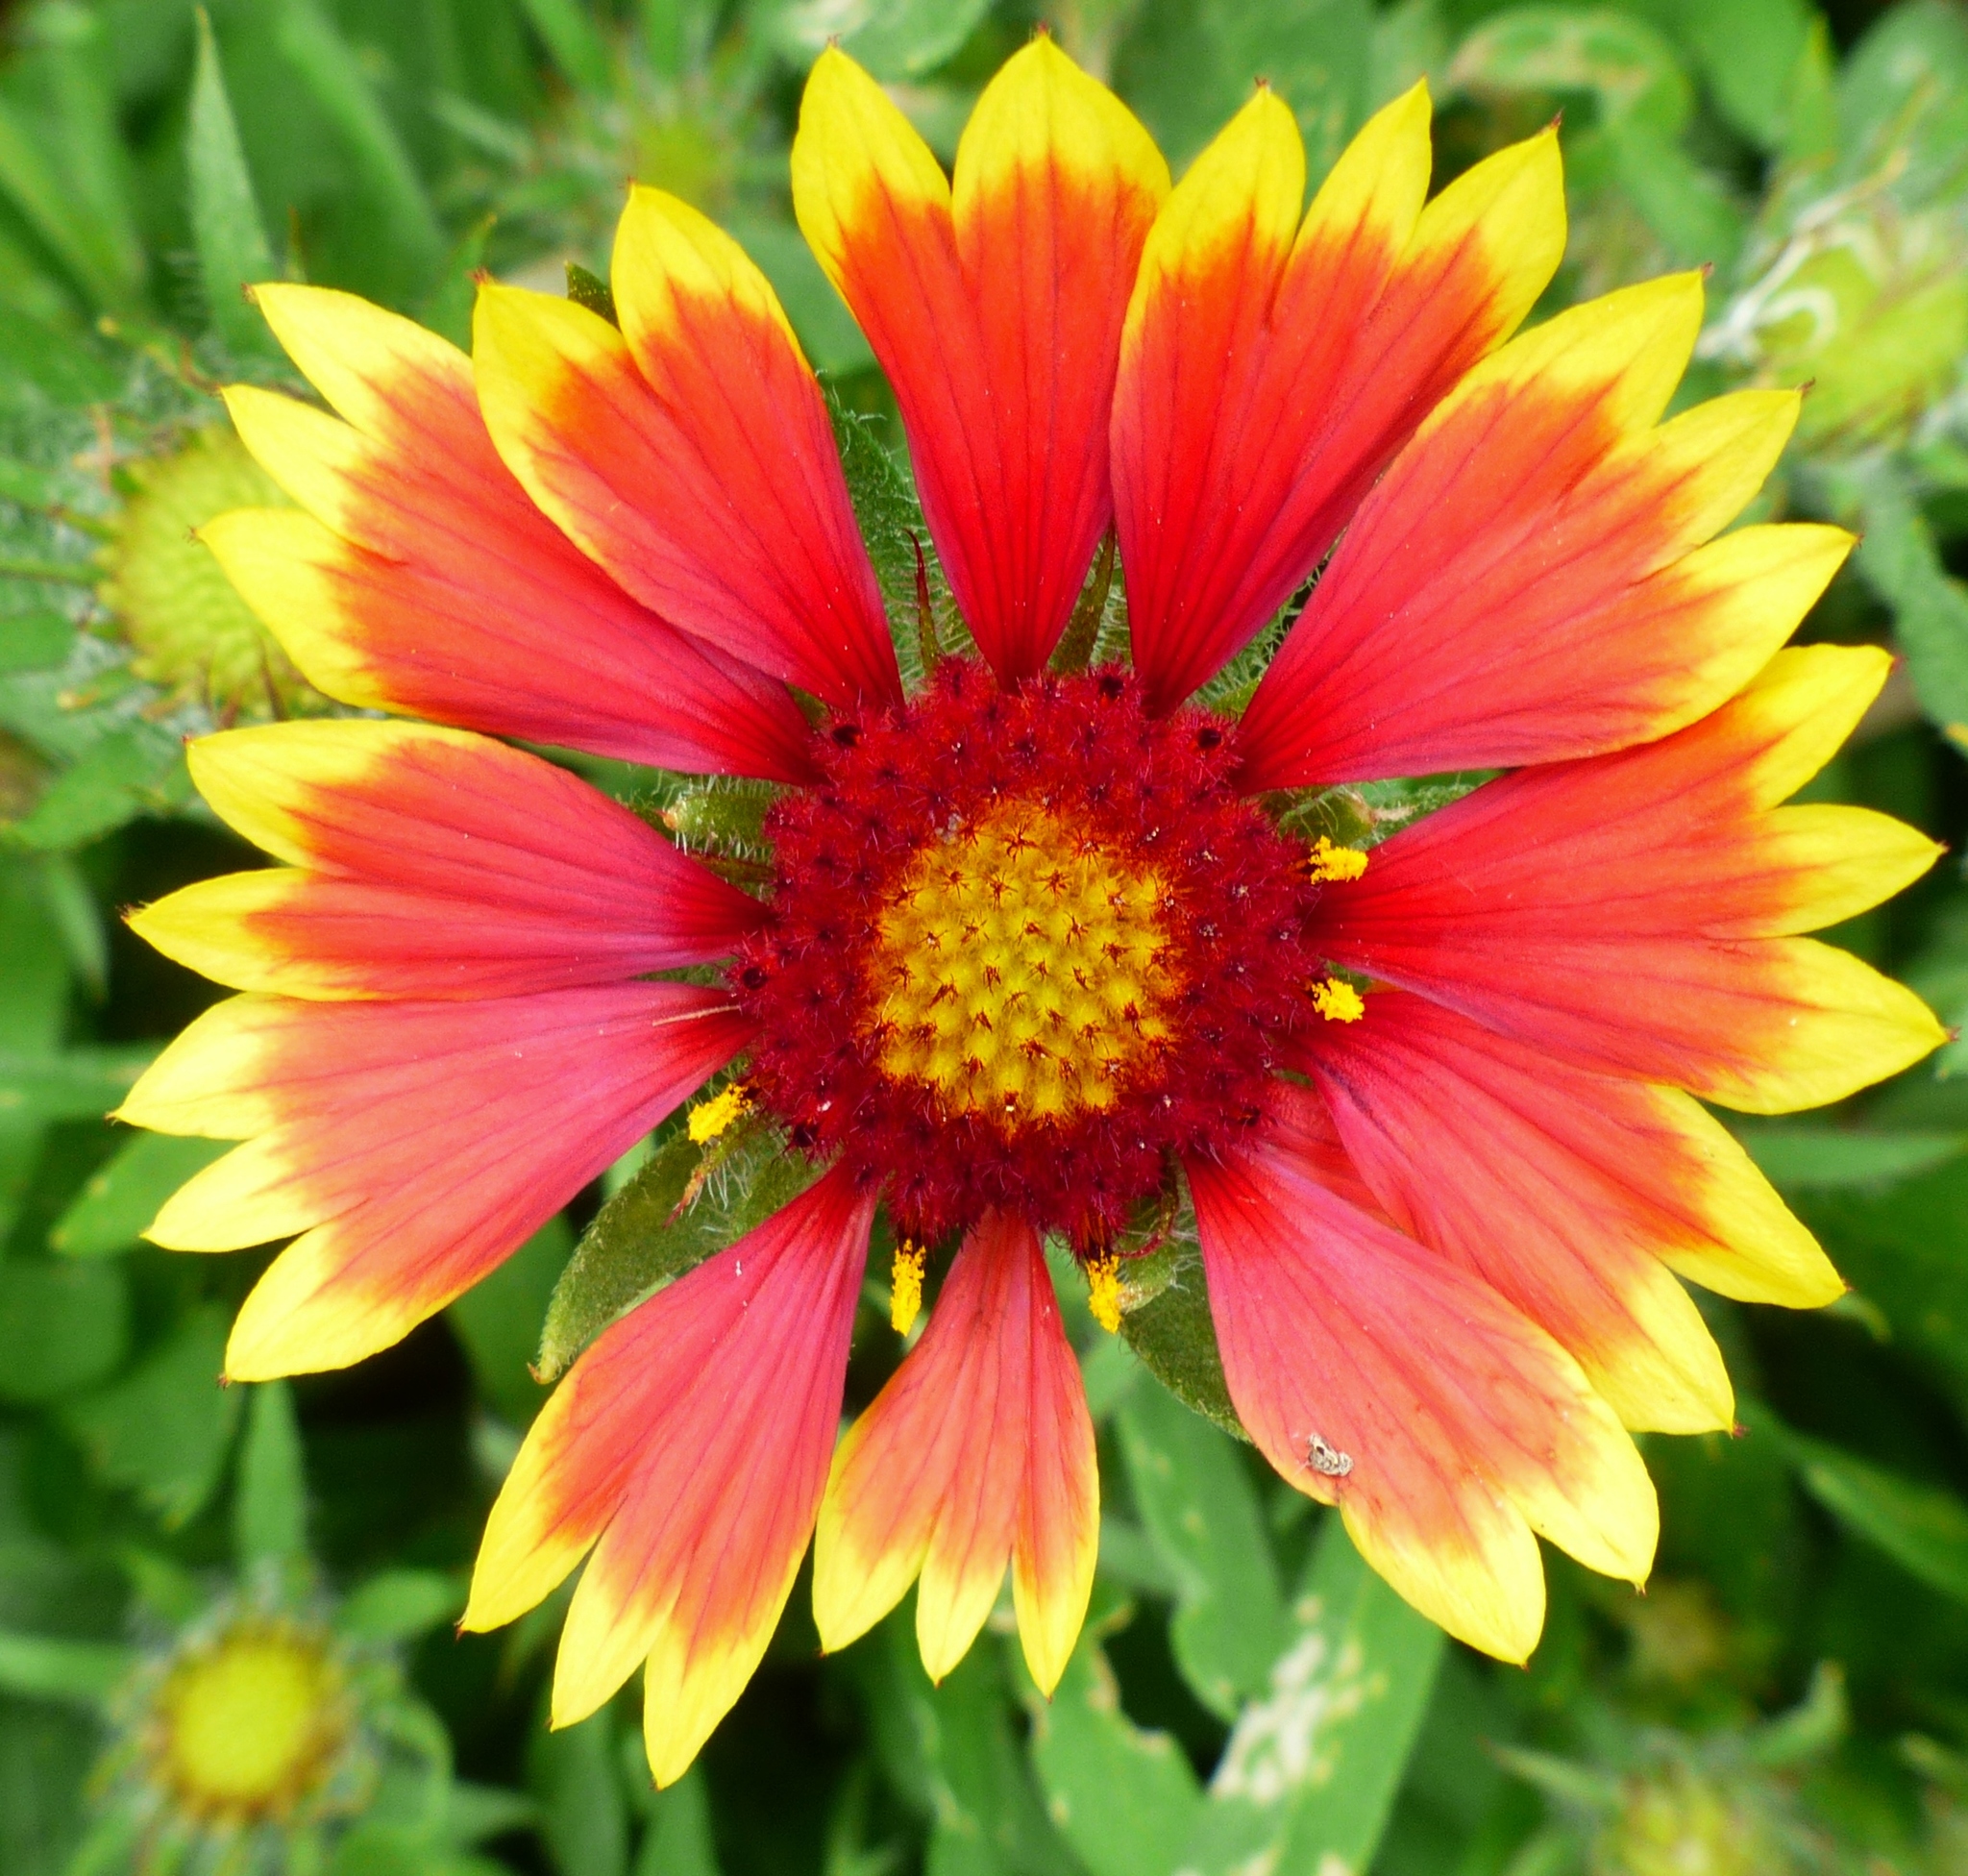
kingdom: Plantae
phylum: Tracheophyta
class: Magnoliopsida
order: Asterales
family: Asteraceae
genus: Gaillardia
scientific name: Gaillardia pulchella
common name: Firewheel
